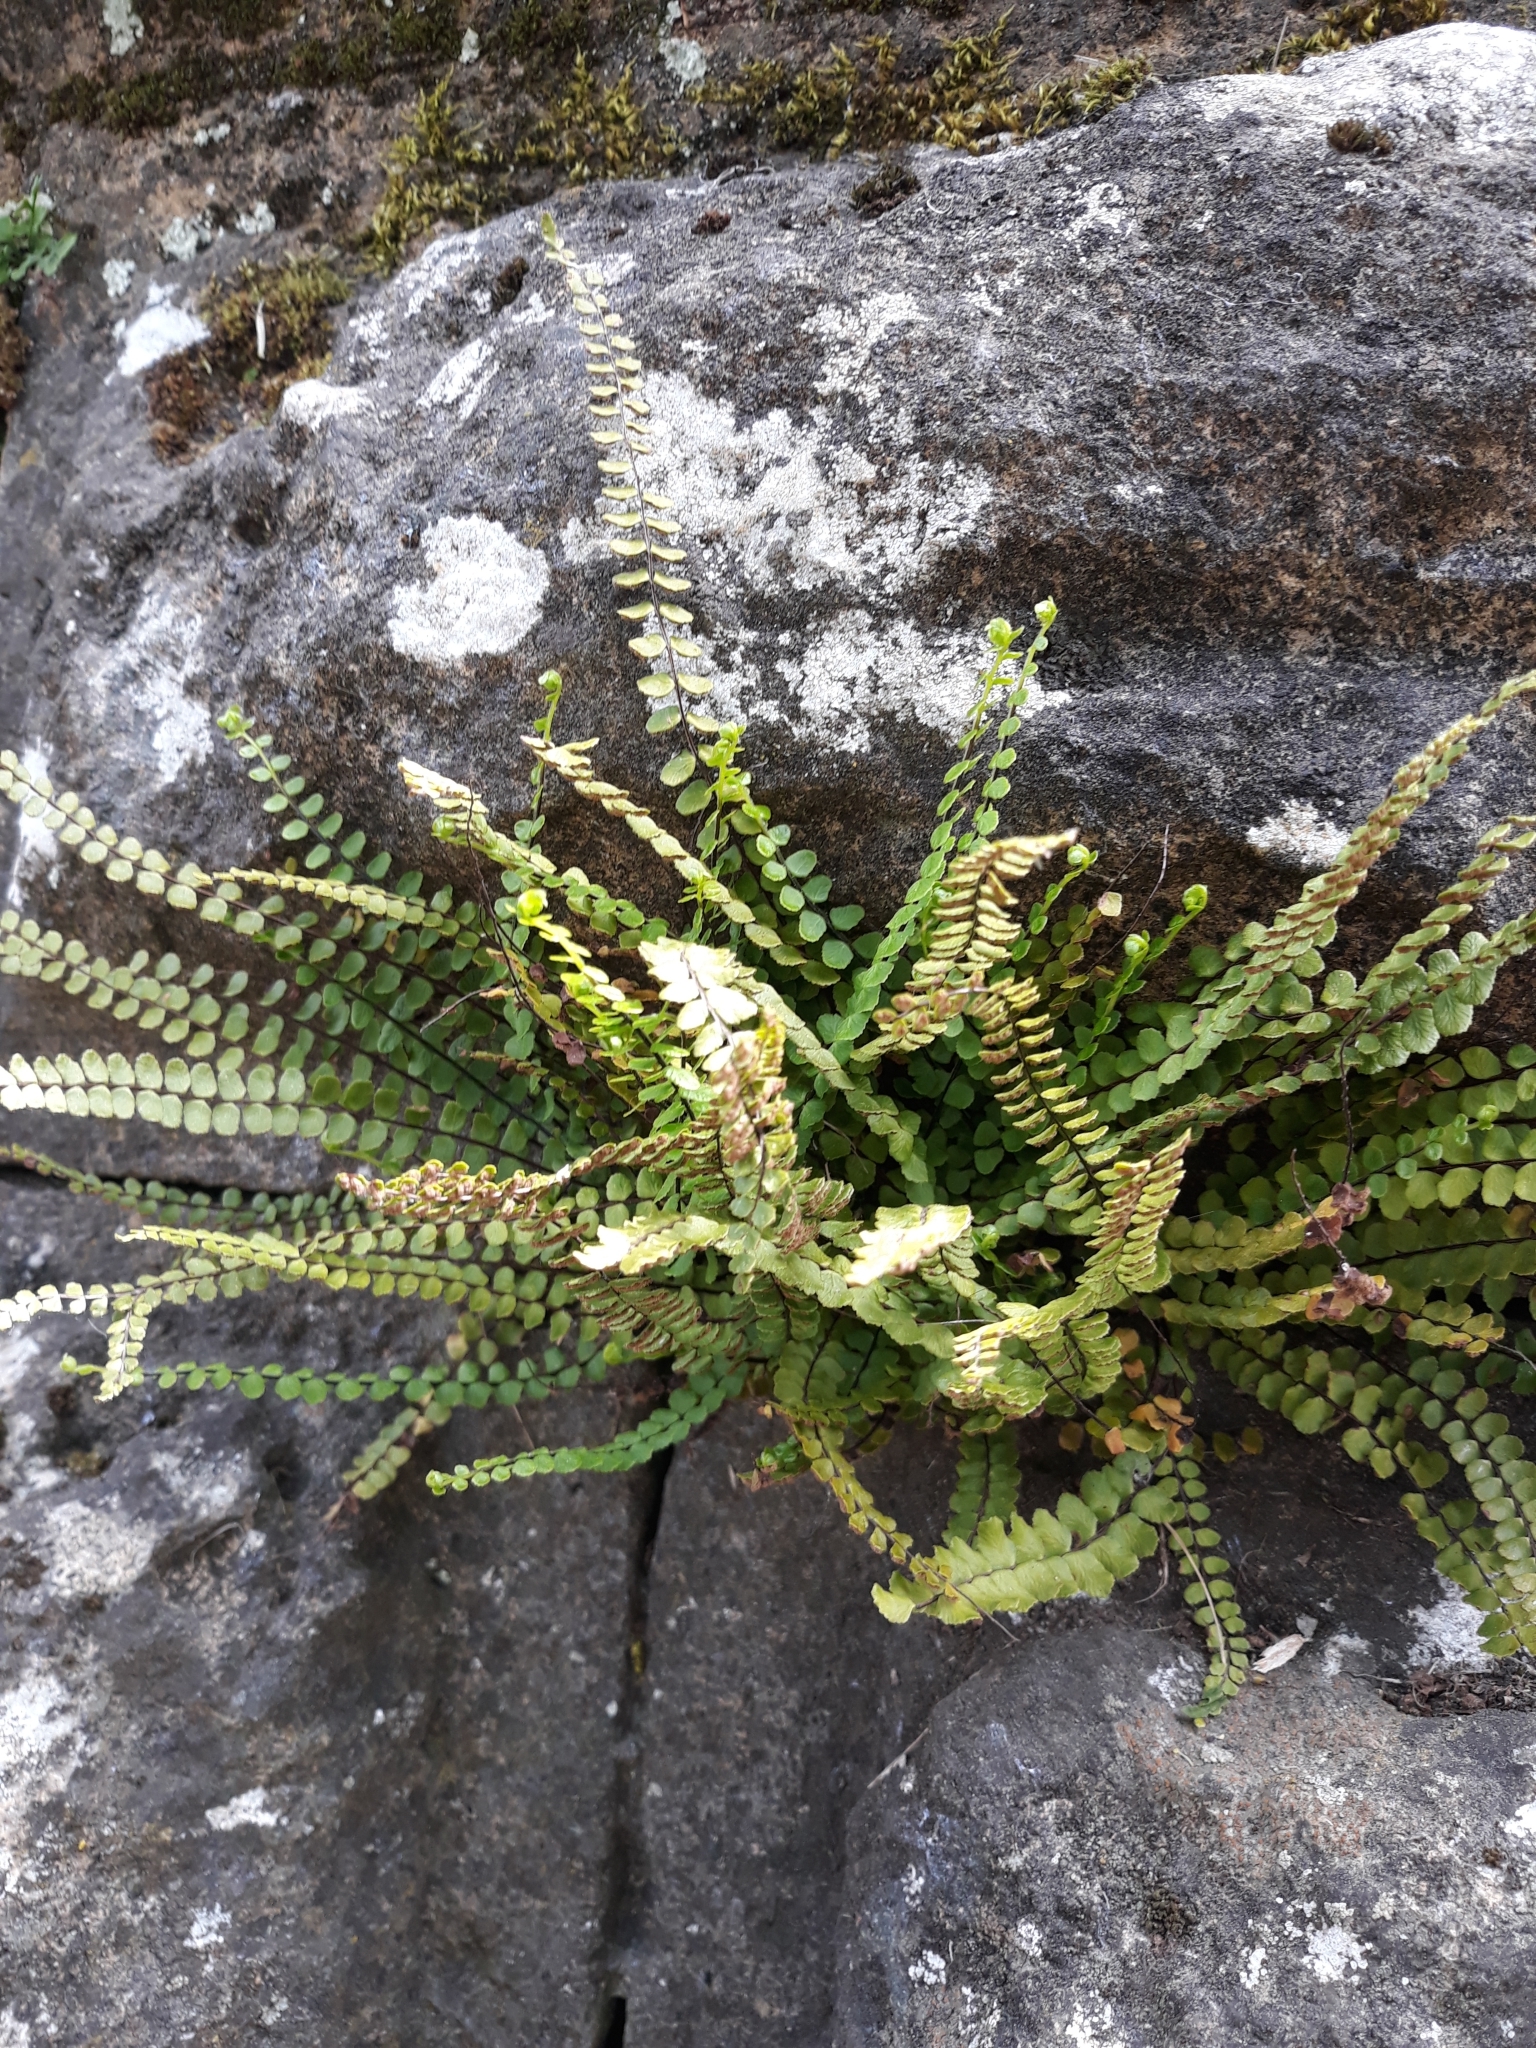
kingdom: Plantae
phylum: Tracheophyta
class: Polypodiopsida
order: Polypodiales
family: Aspleniaceae
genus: Asplenium
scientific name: Asplenium quadrivalens
